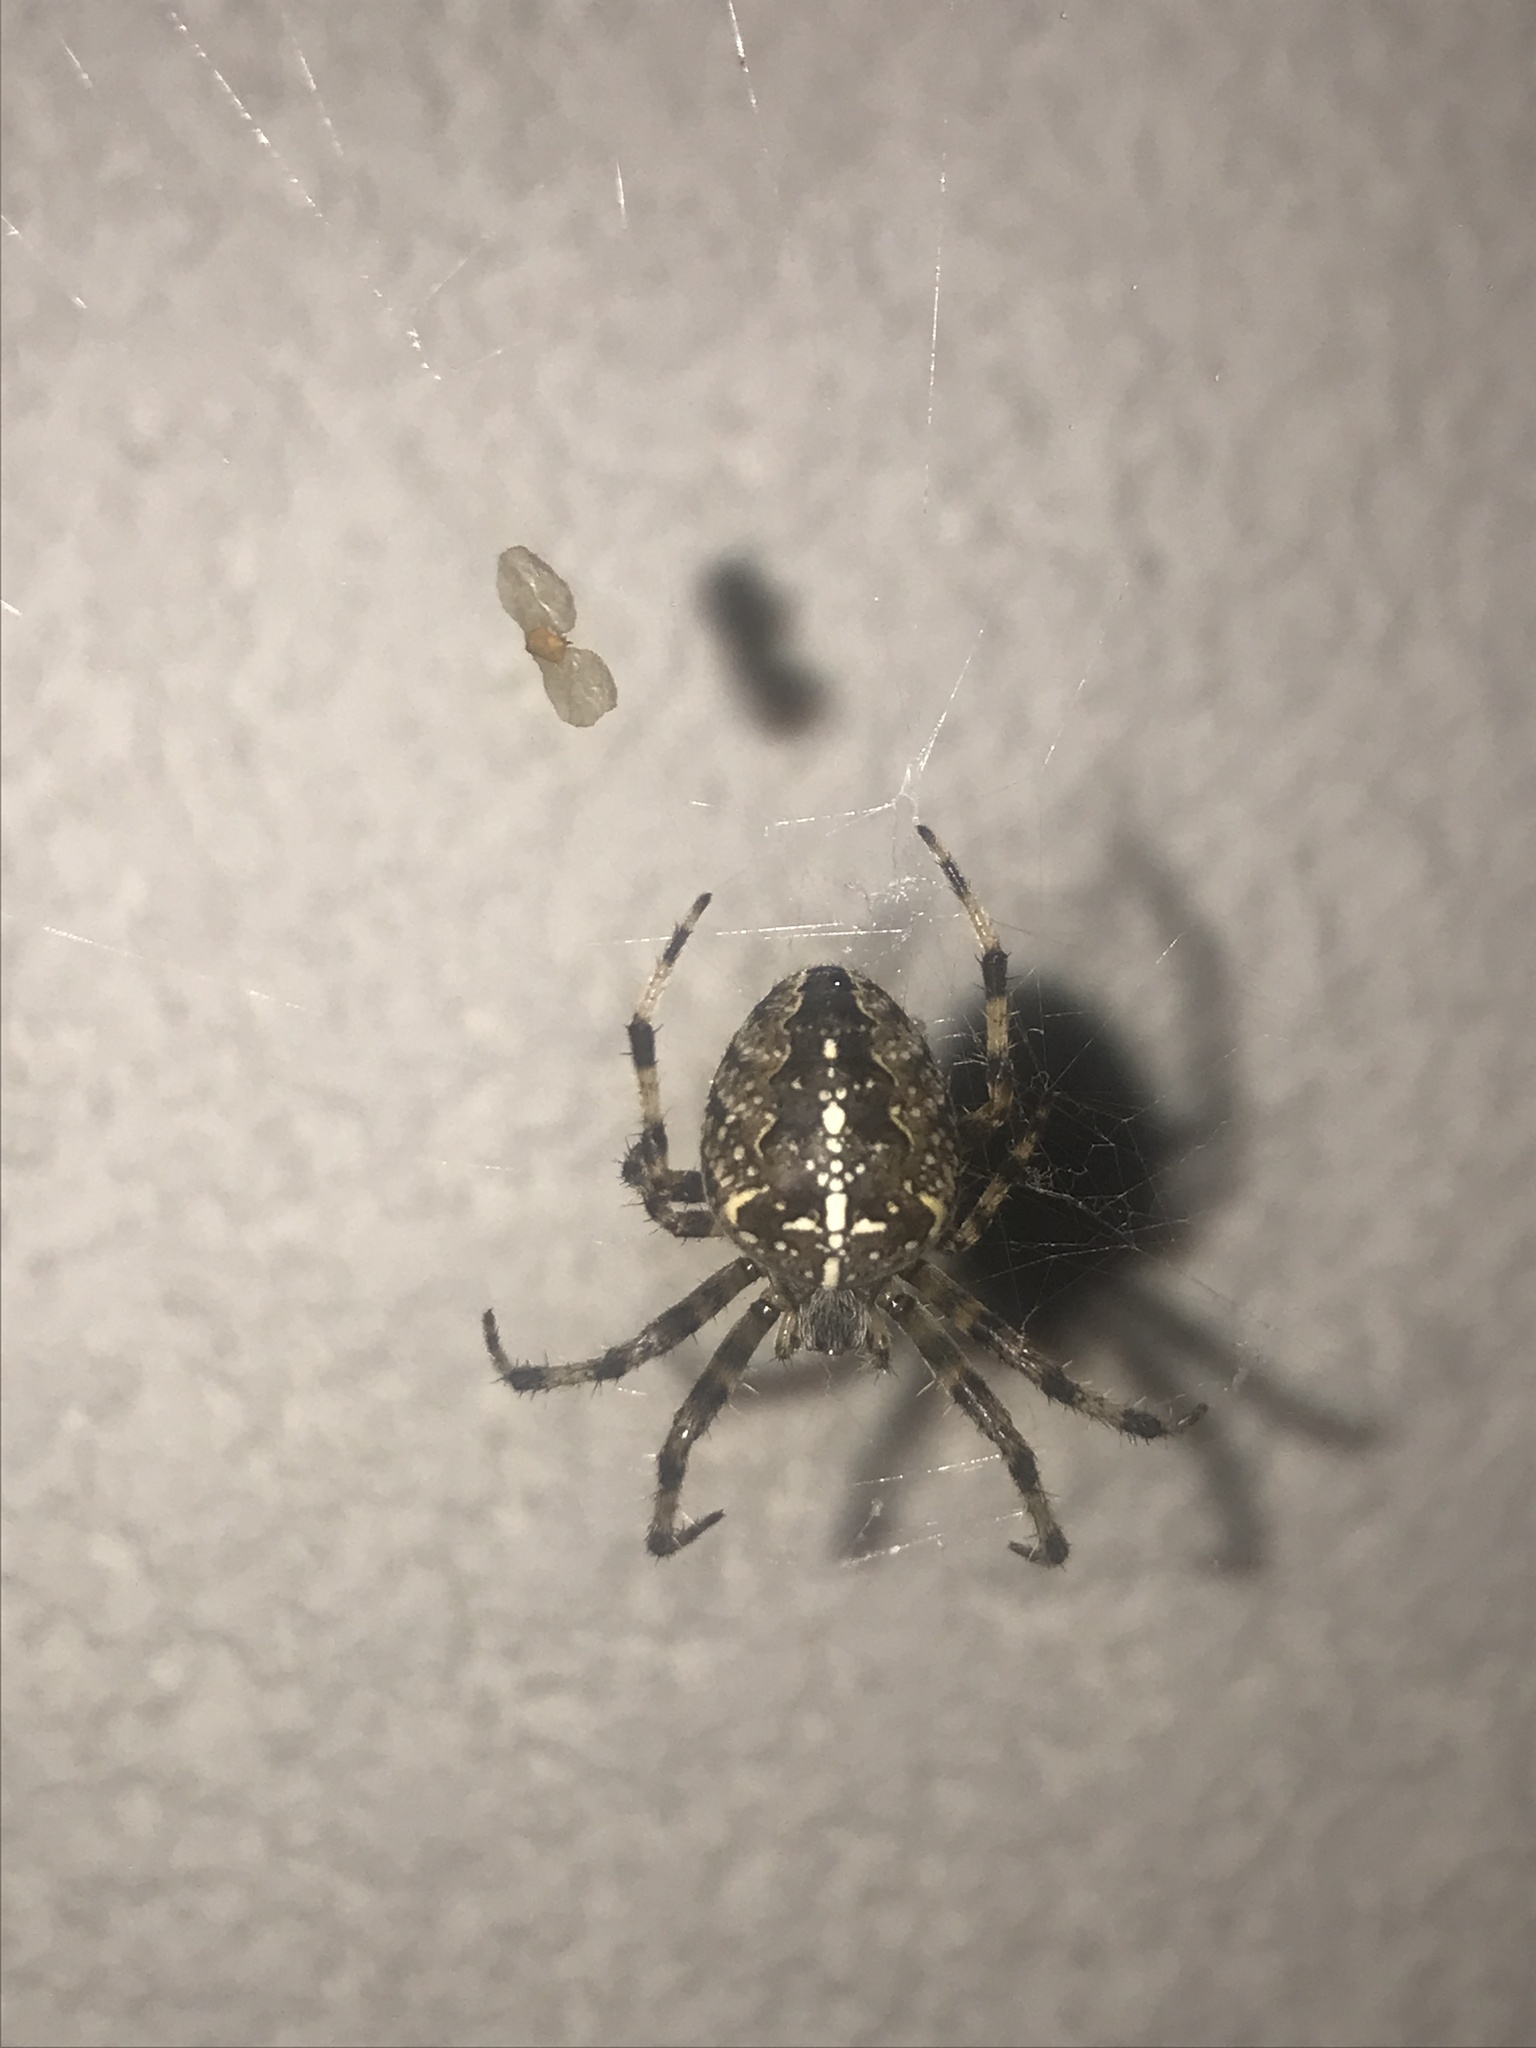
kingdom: Animalia
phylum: Arthropoda
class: Arachnida
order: Araneae
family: Araneidae
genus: Araneus
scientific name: Araneus diadematus
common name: Cross orbweaver
